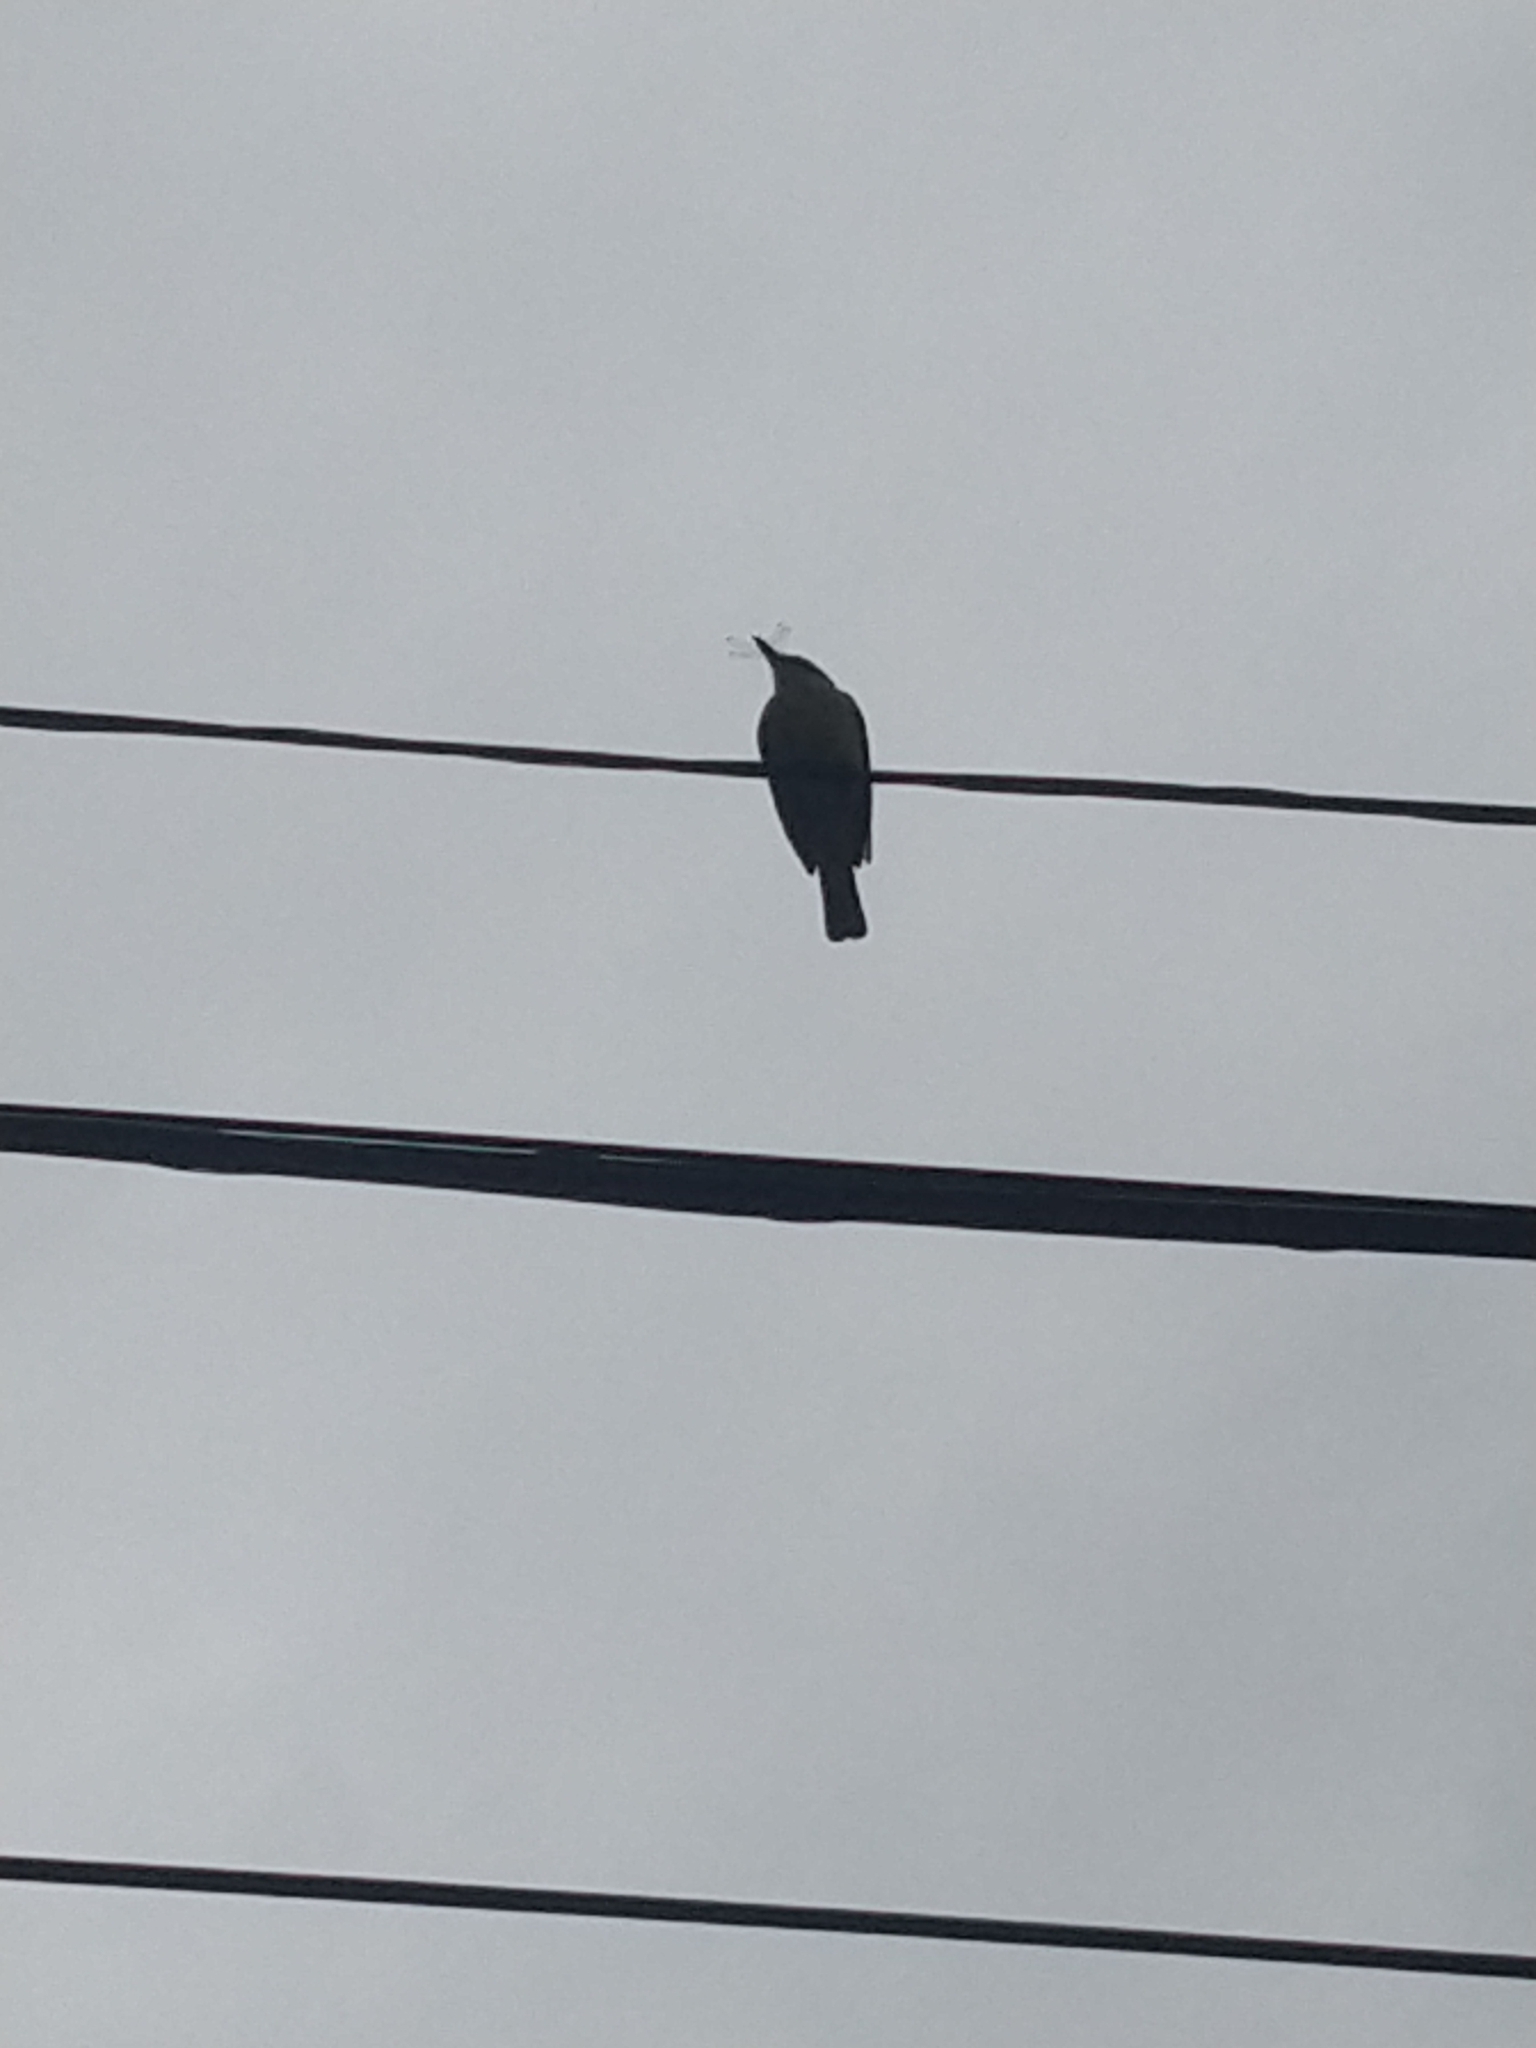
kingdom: Animalia
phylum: Chordata
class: Aves
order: Passeriformes
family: Tyrannidae
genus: Pitangus
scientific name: Pitangus sulphuratus
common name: Great kiskadee
